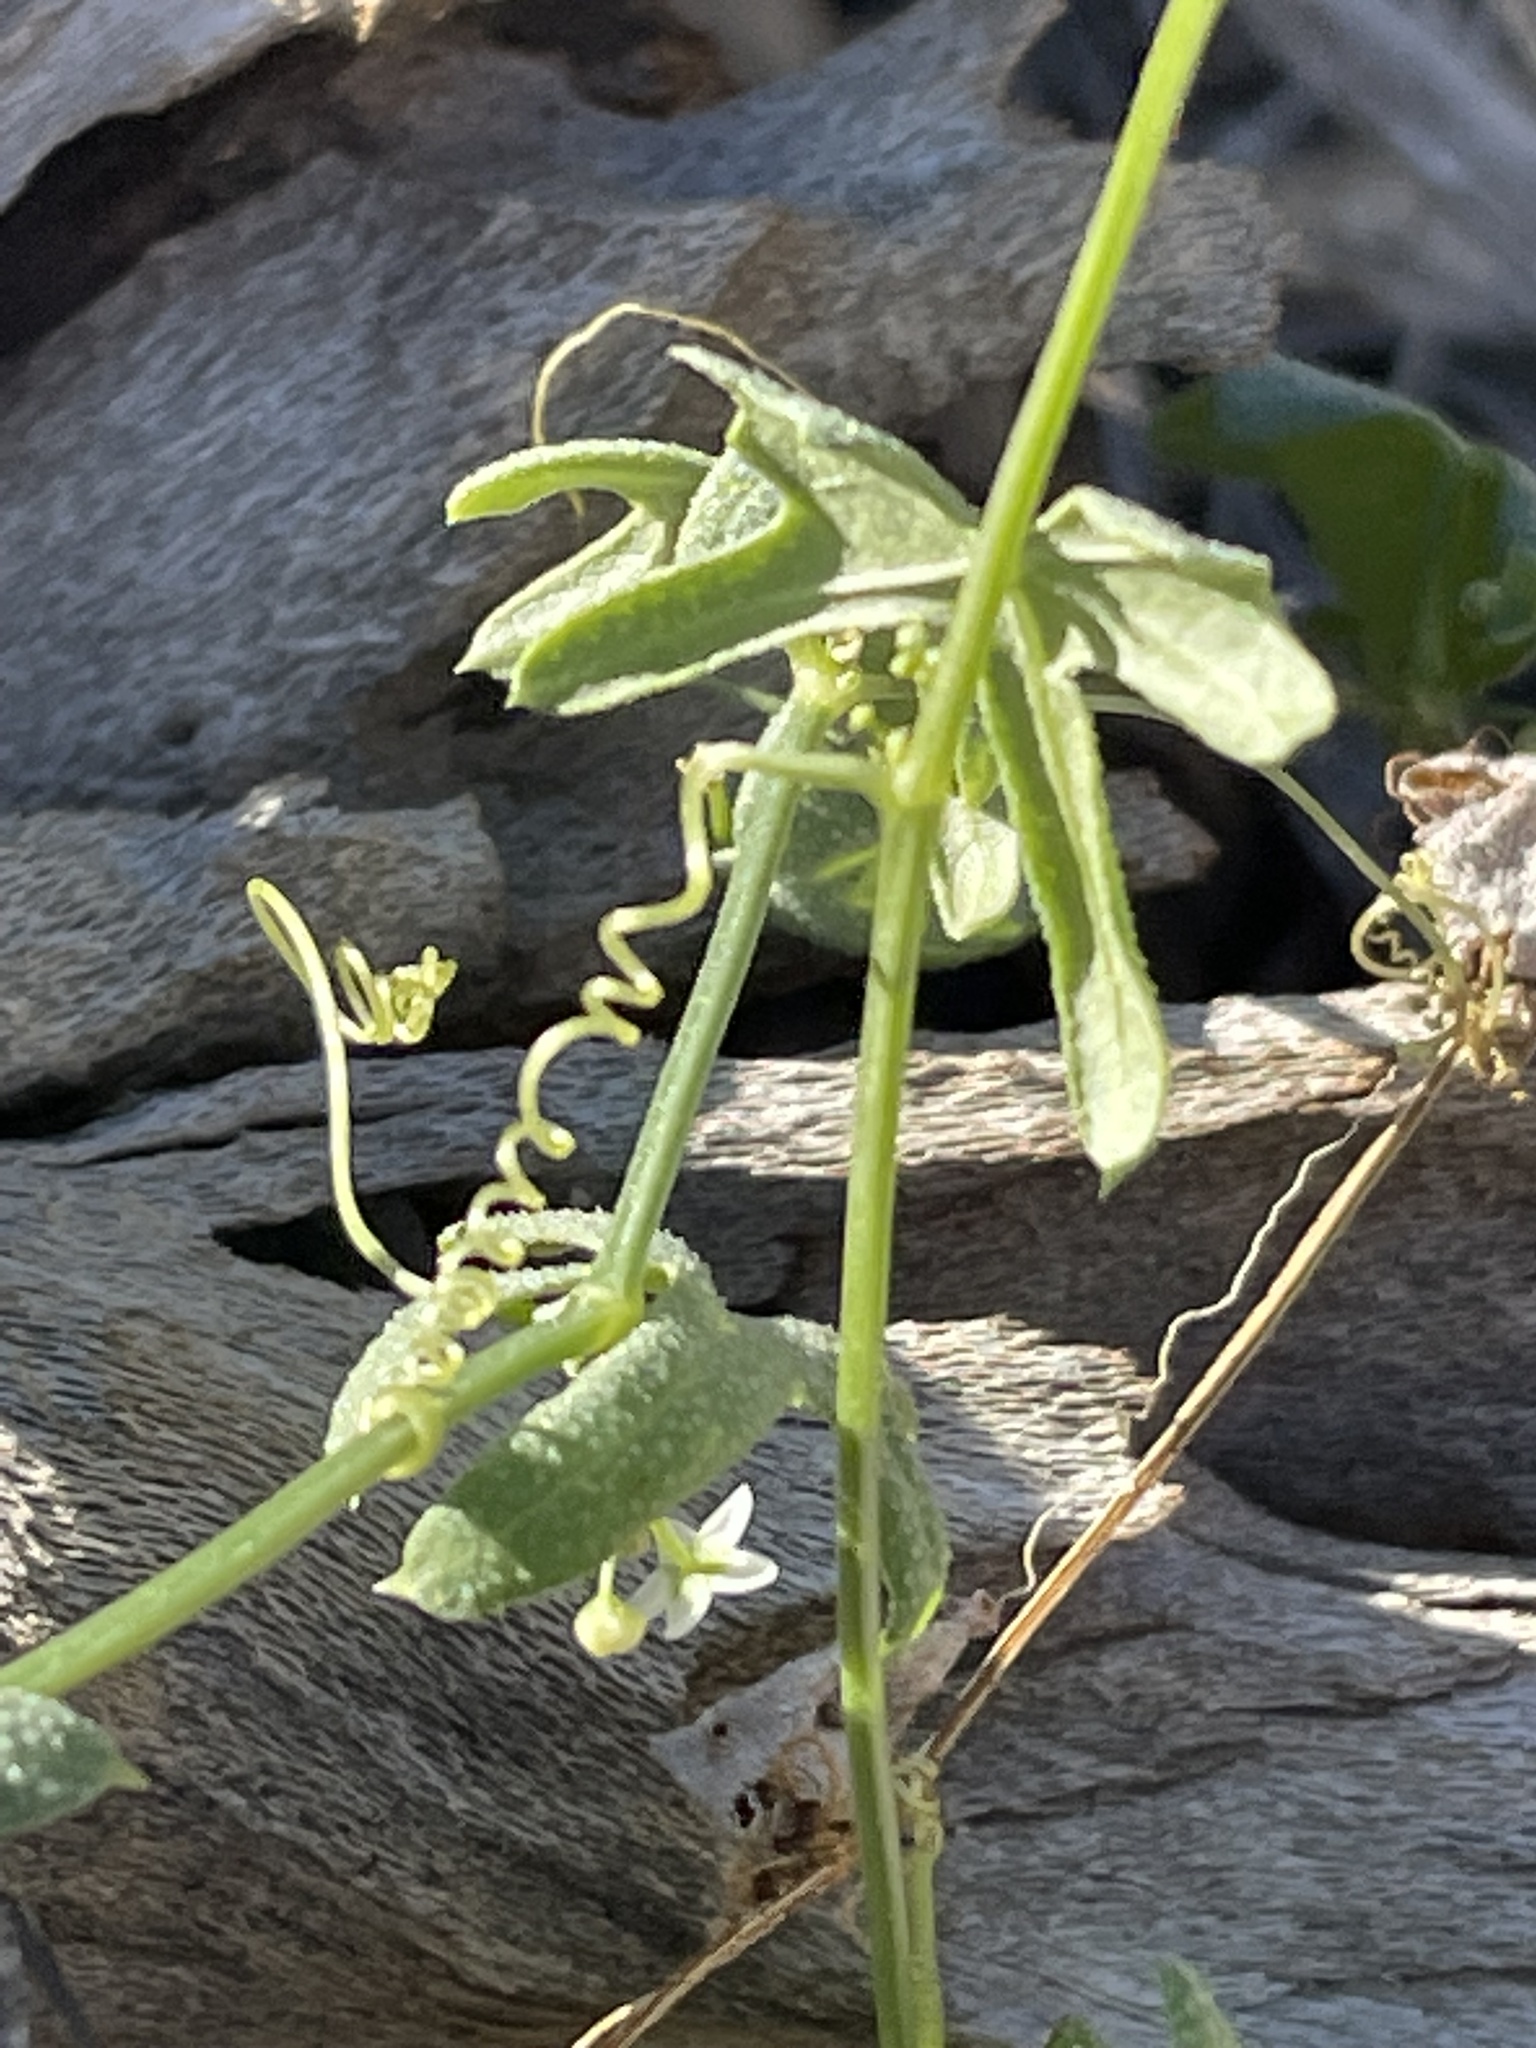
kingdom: Plantae
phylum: Tracheophyta
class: Magnoliopsida
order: Cucurbitales
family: Cucurbitaceae
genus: Echinopepon
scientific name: Echinopepon bigelovii
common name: Desert starvine
